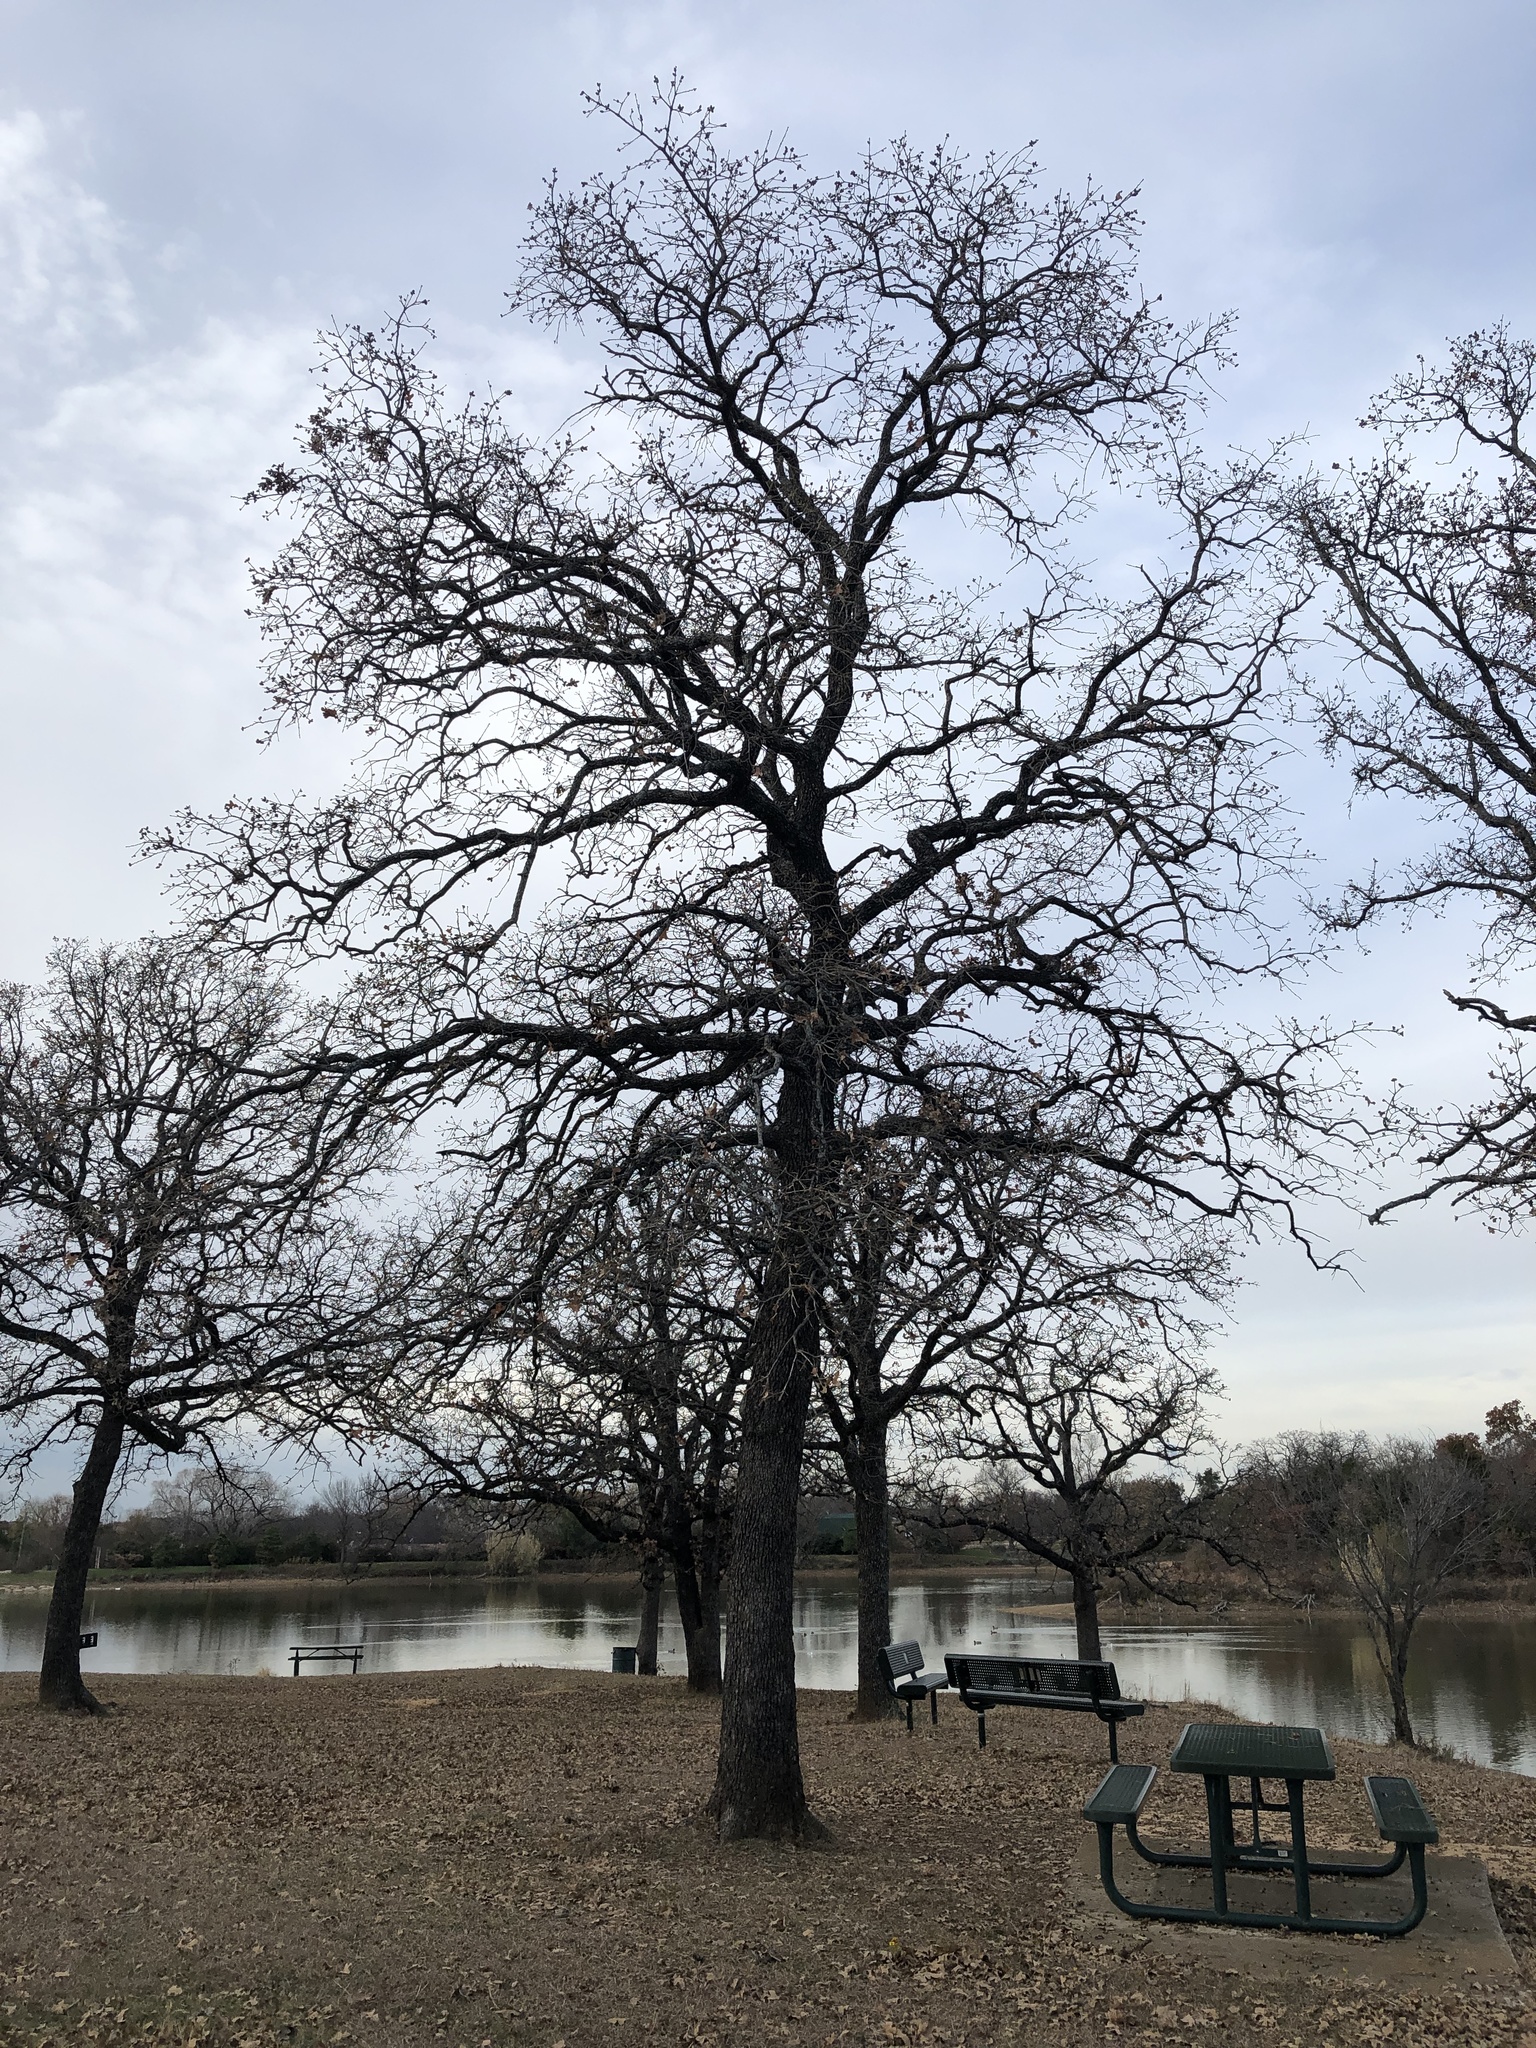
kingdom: Plantae
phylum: Tracheophyta
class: Magnoliopsida
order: Fagales
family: Fagaceae
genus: Quercus
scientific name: Quercus stellata
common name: Post oak
